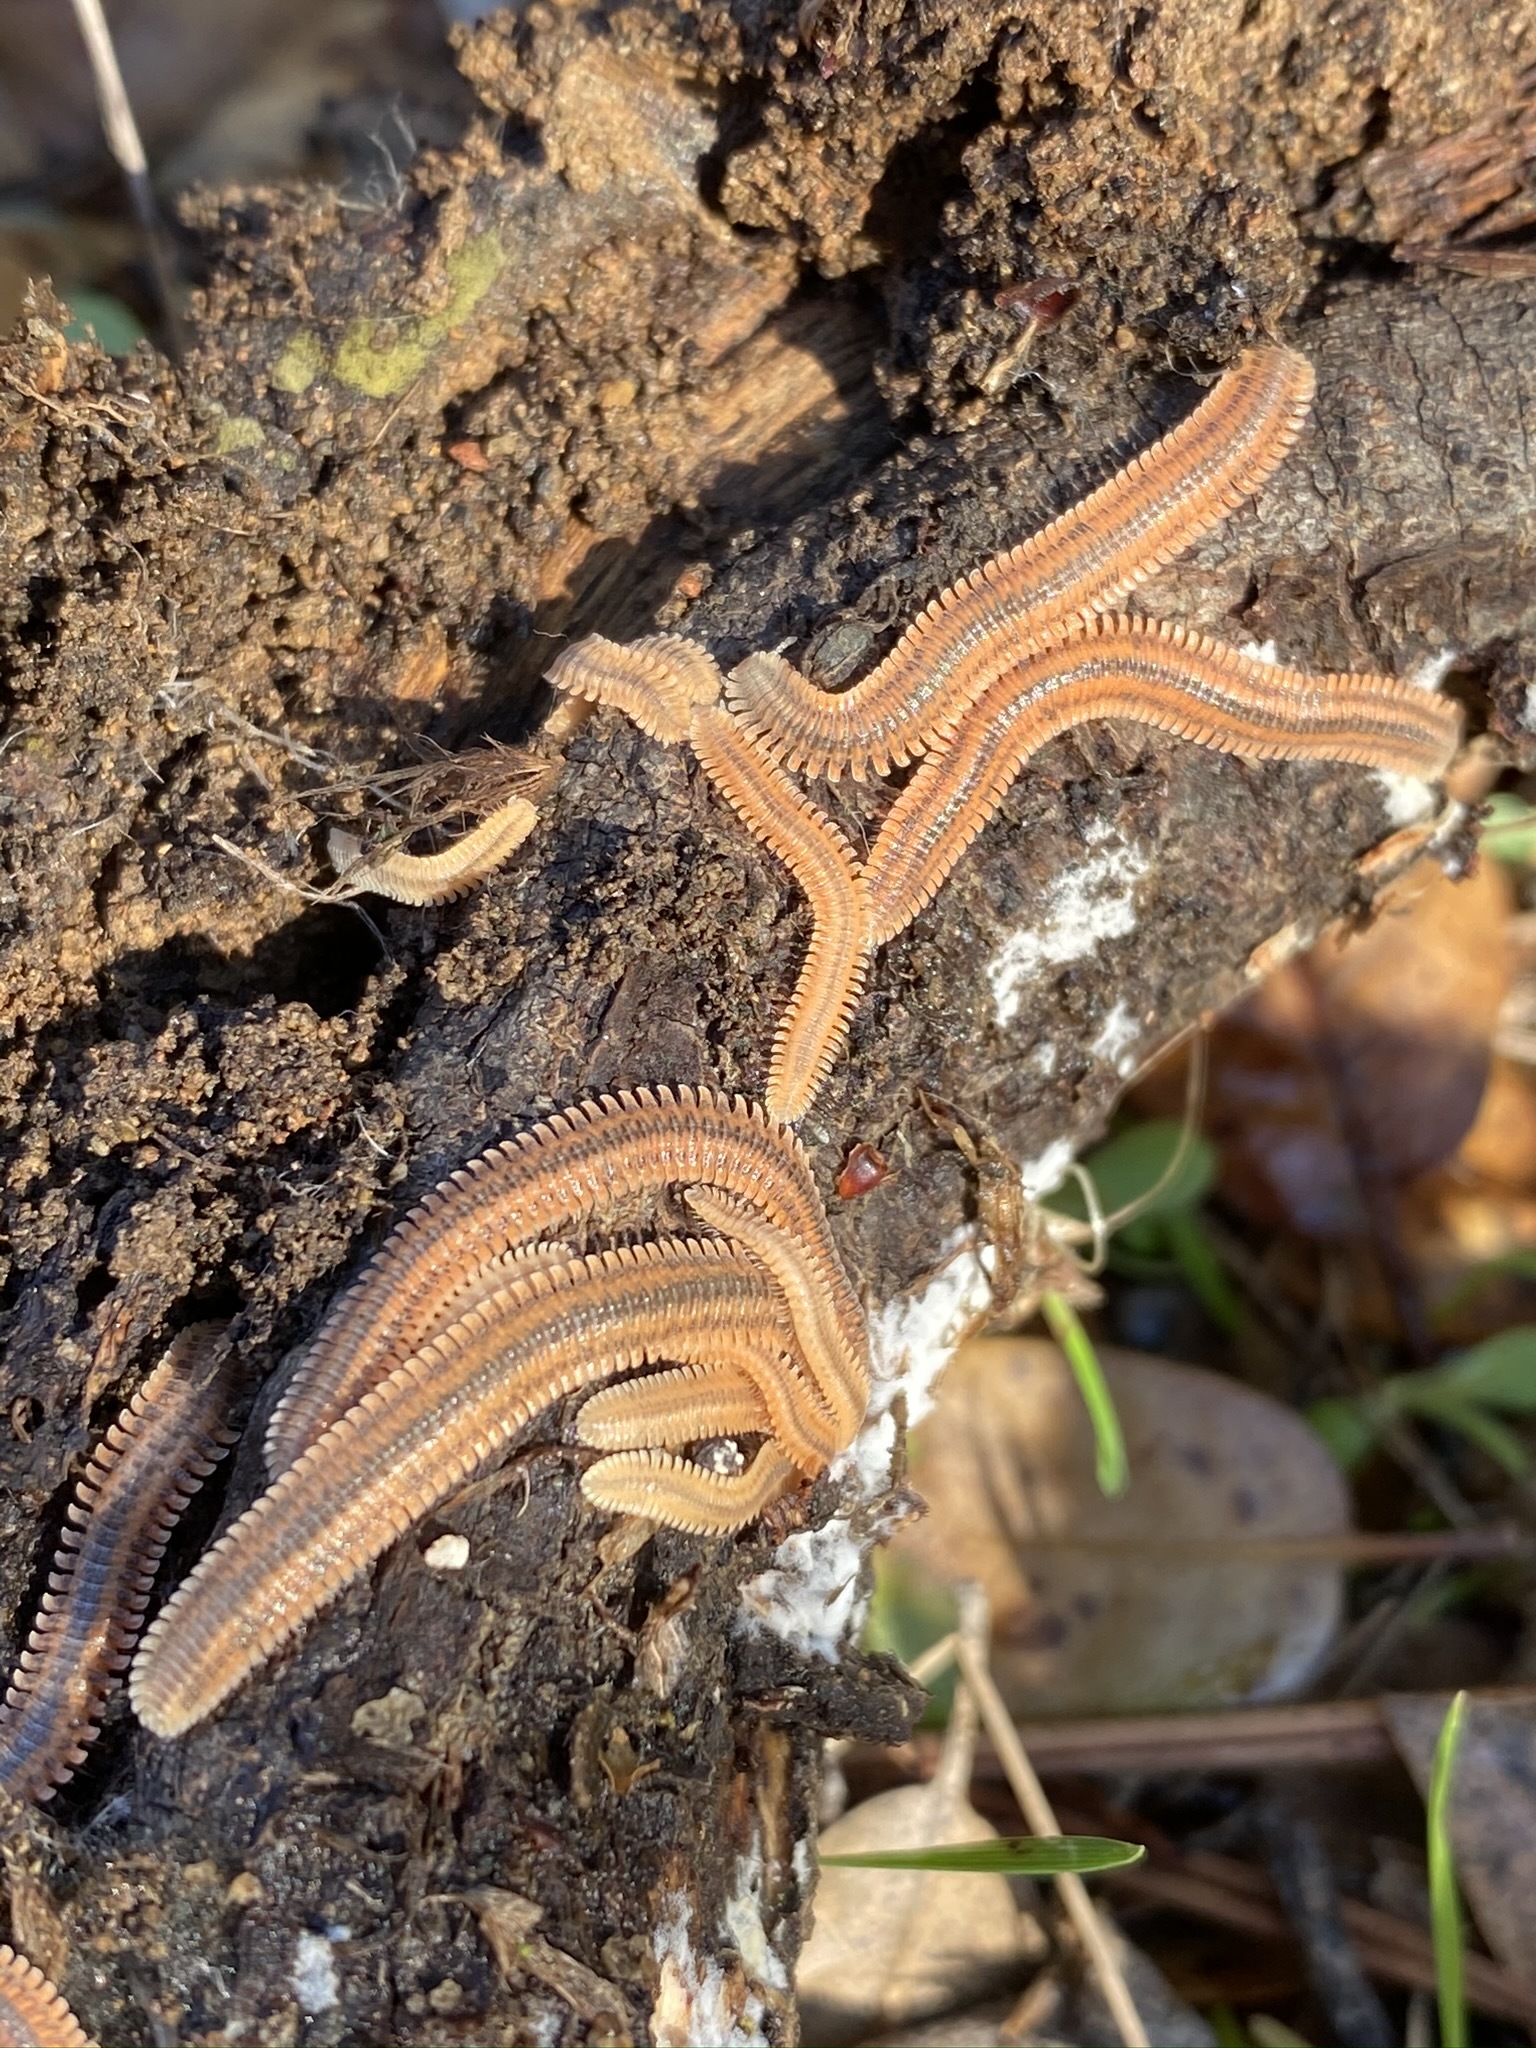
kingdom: Animalia
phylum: Arthropoda
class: Diplopoda
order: Platydesmida
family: Andrognathidae
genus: Brachycybe
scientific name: Brachycybe producta
